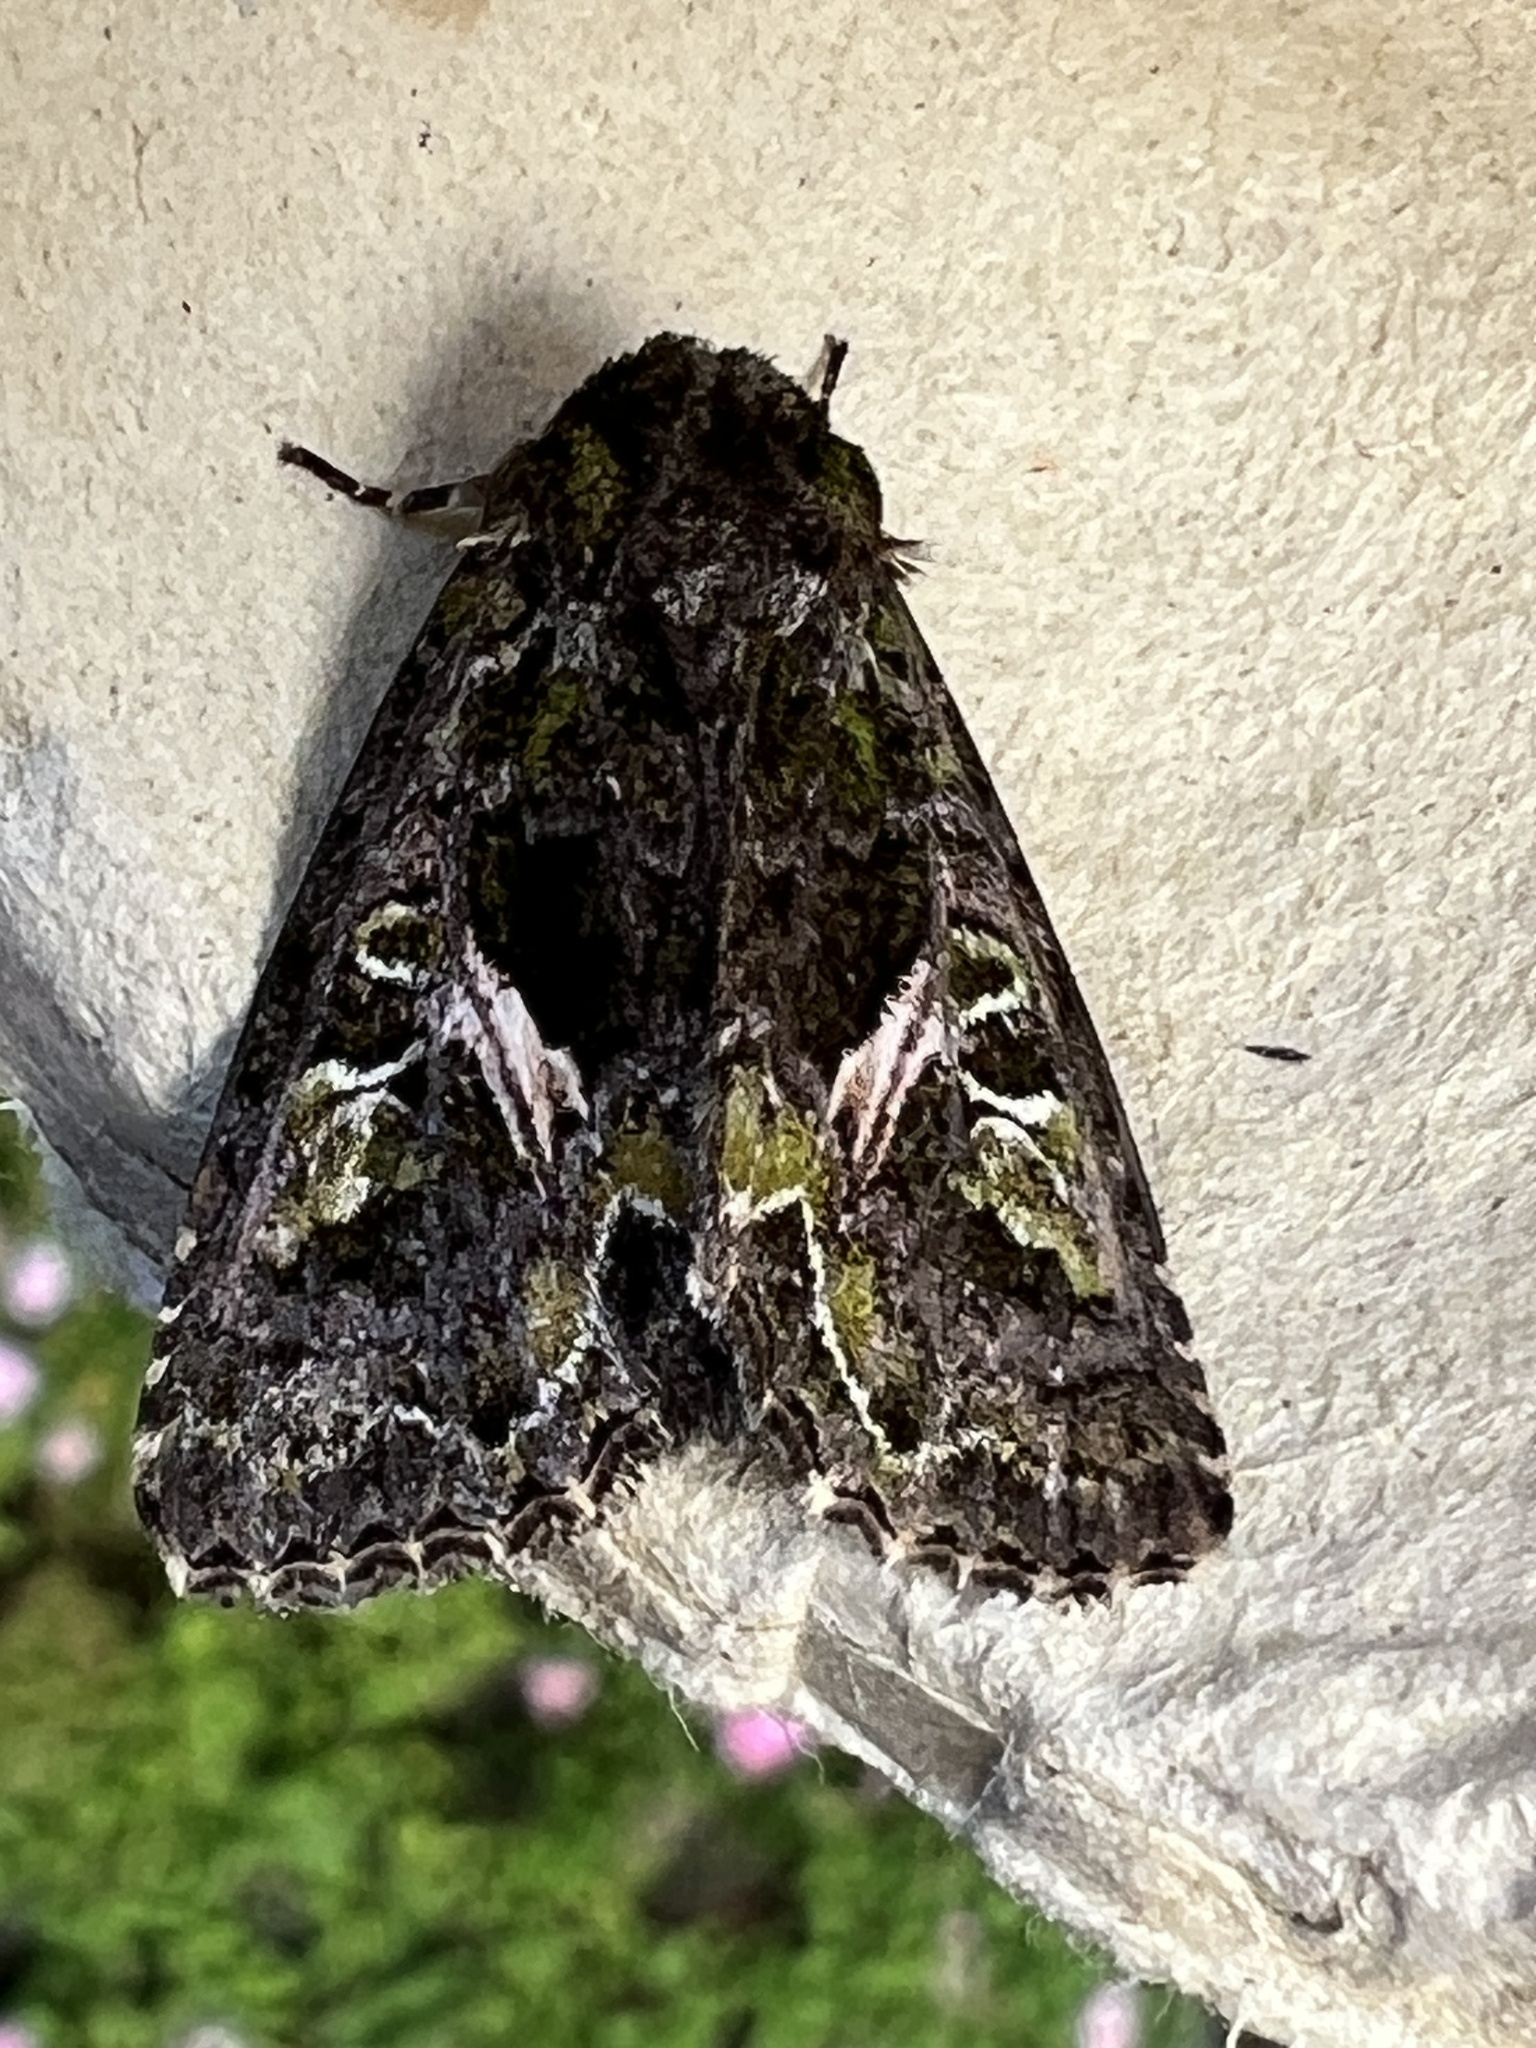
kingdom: Animalia
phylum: Arthropoda
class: Insecta
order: Lepidoptera
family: Noctuidae
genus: Trachea
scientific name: Trachea atriplicis
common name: Orache moth
